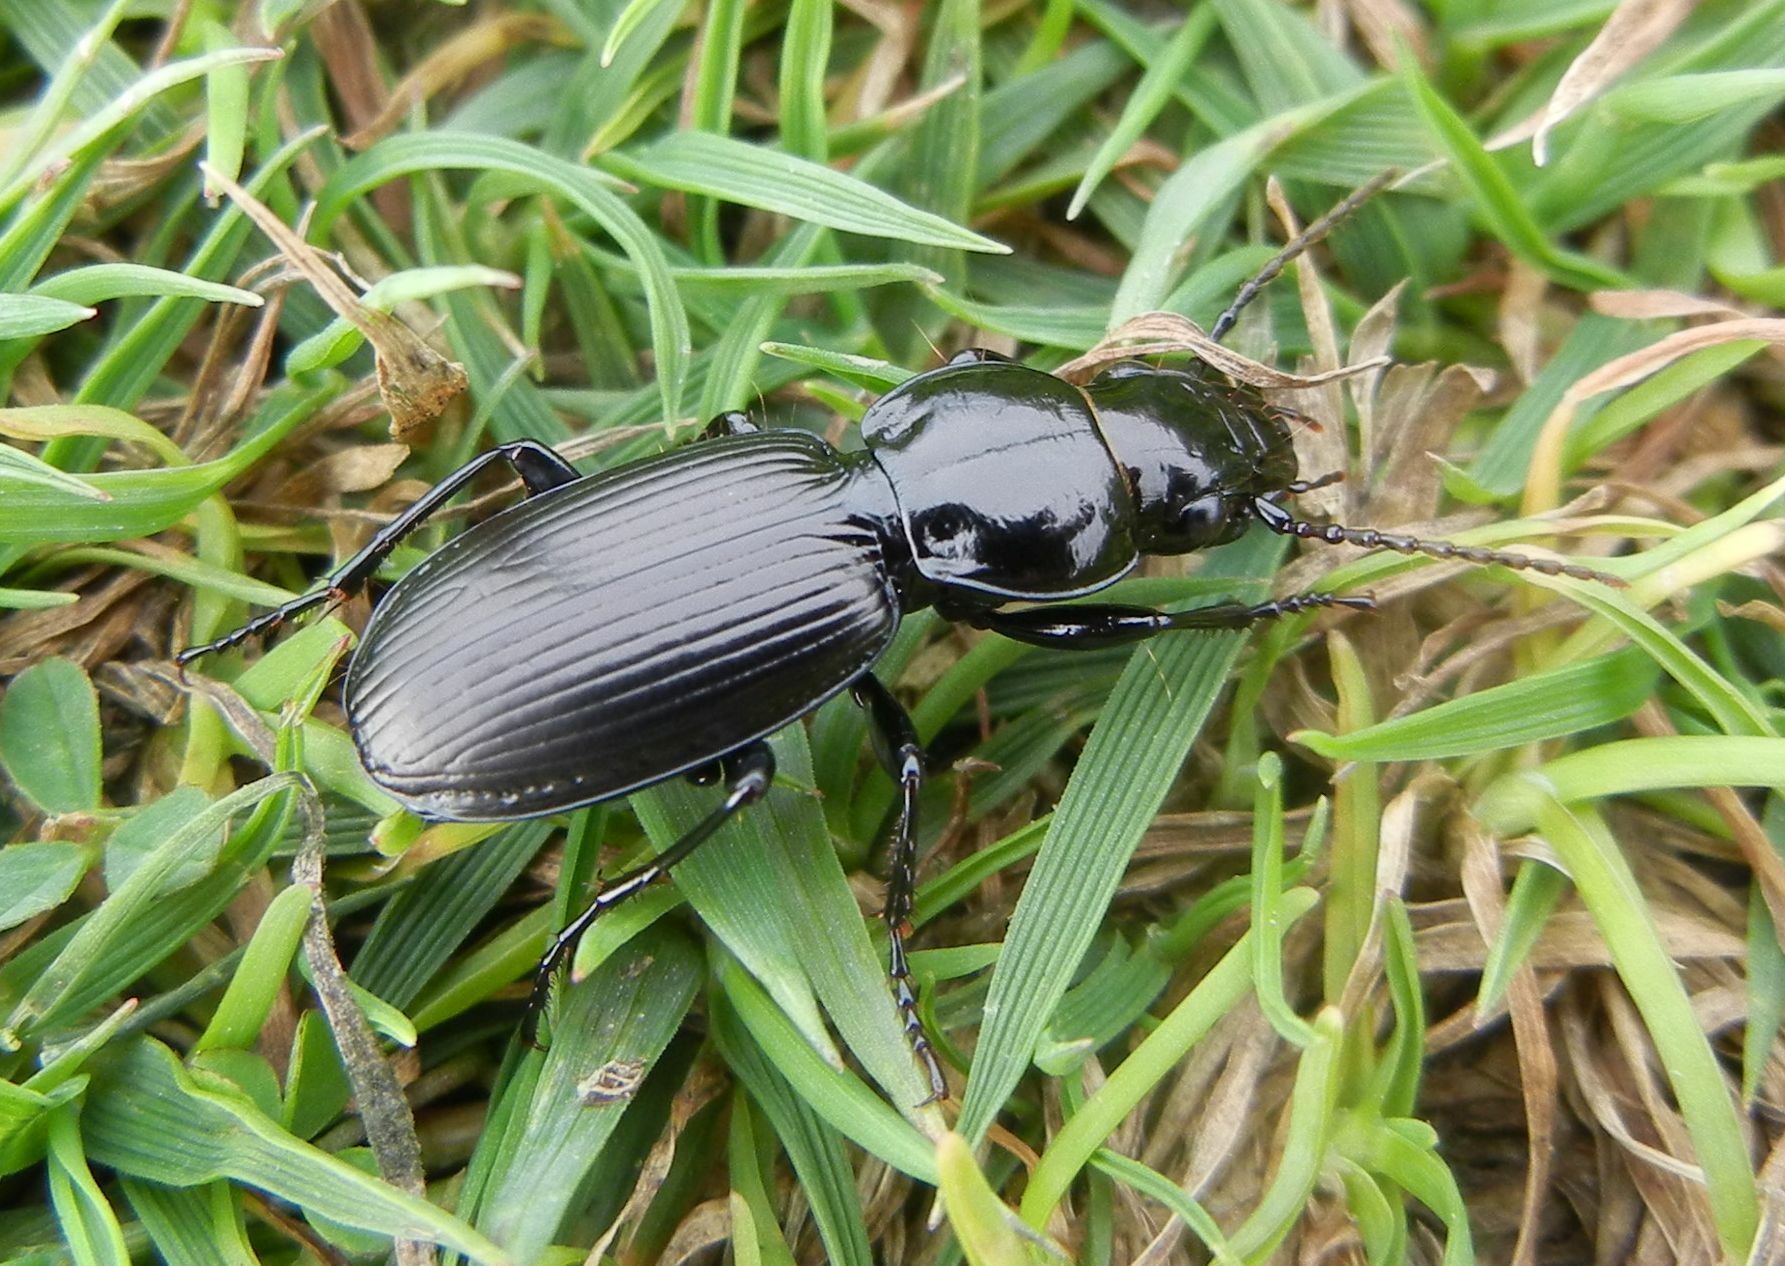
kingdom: Animalia
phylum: Arthropoda
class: Insecta
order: Coleoptera
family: Carabidae
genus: Pterostichus
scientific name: Pterostichus madidus
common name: Black clock
